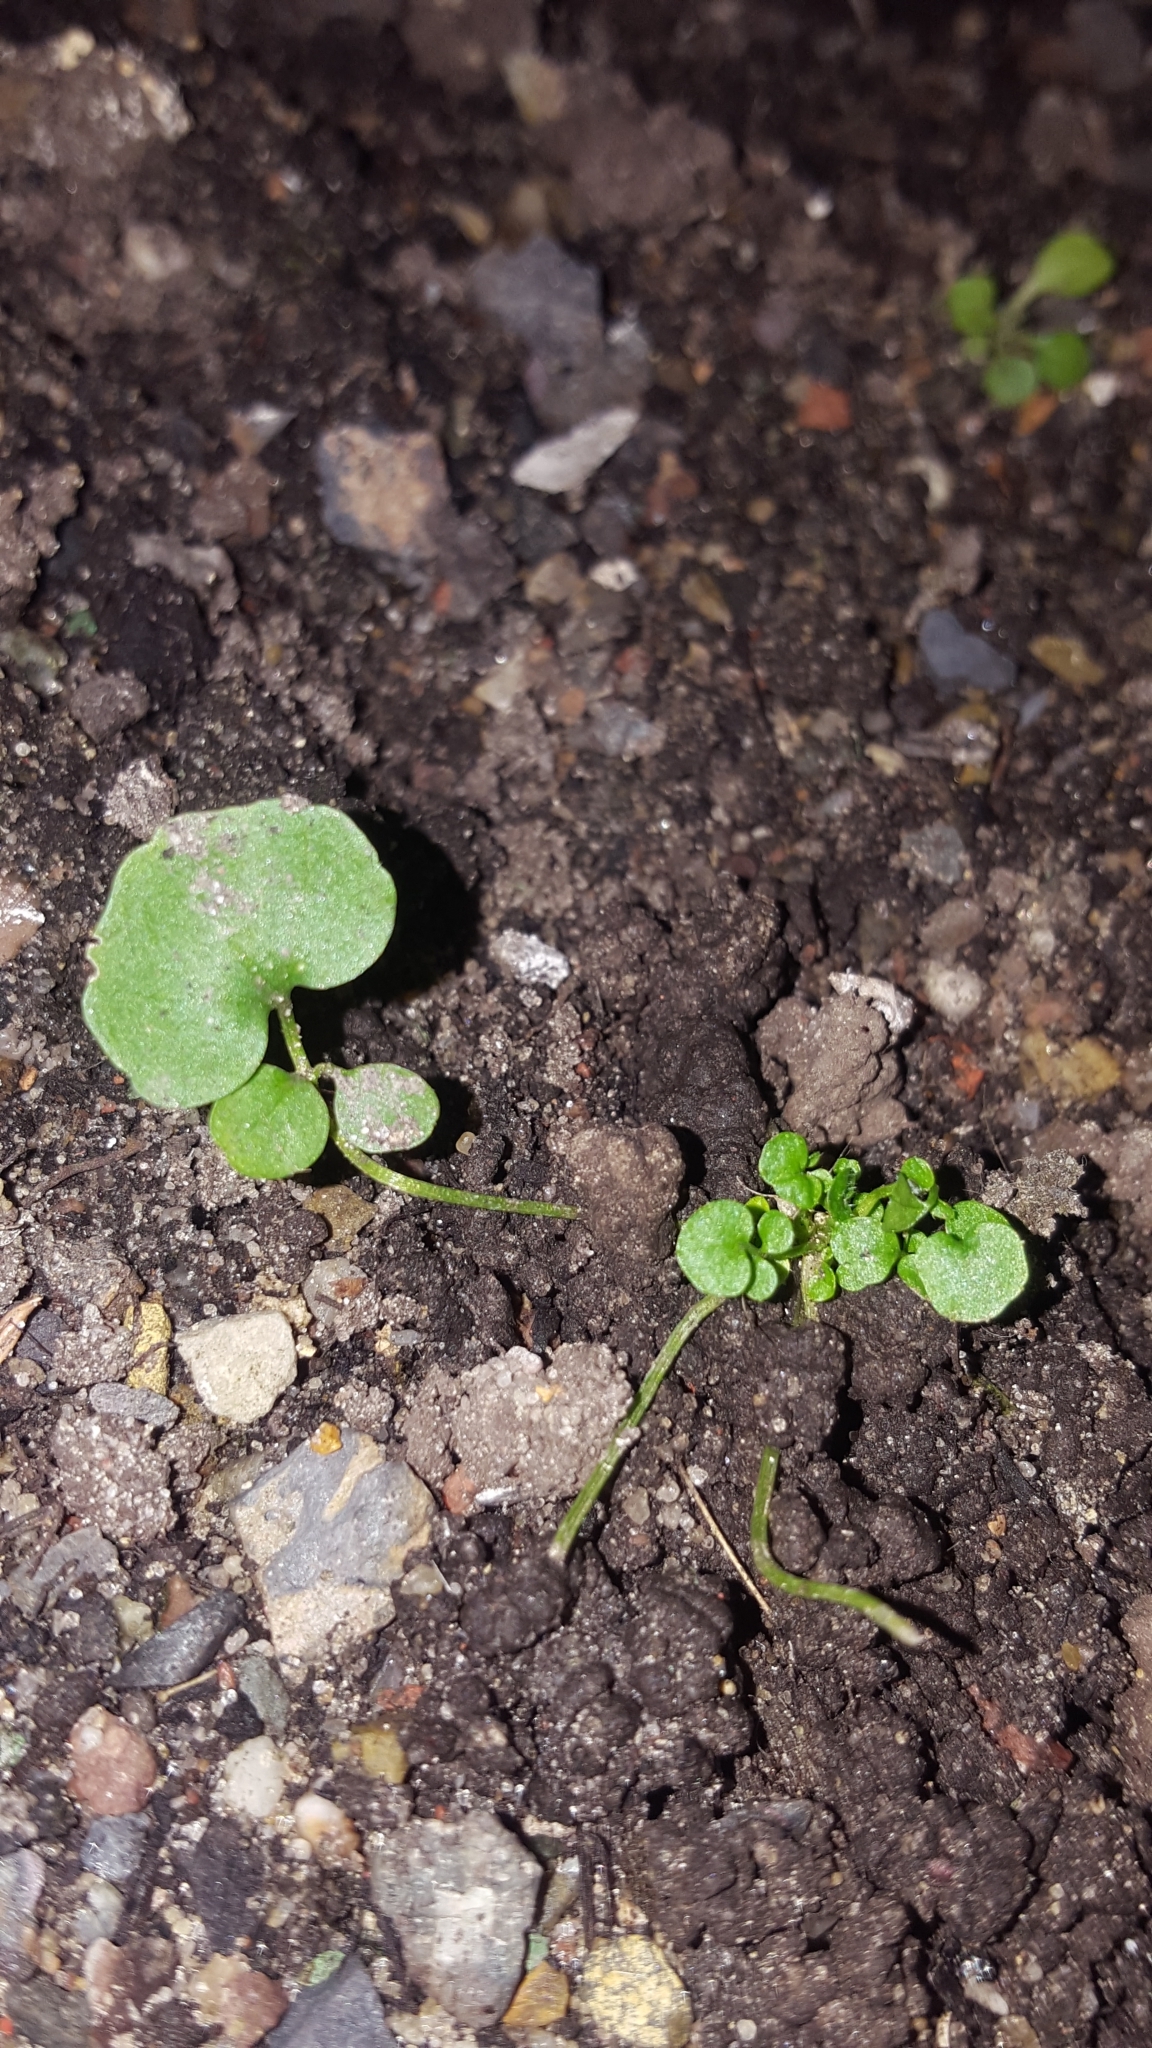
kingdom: Plantae
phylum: Tracheophyta
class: Magnoliopsida
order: Brassicales
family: Brassicaceae
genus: Cardamine
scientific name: Cardamine hirsuta
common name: Hairy bittercress
